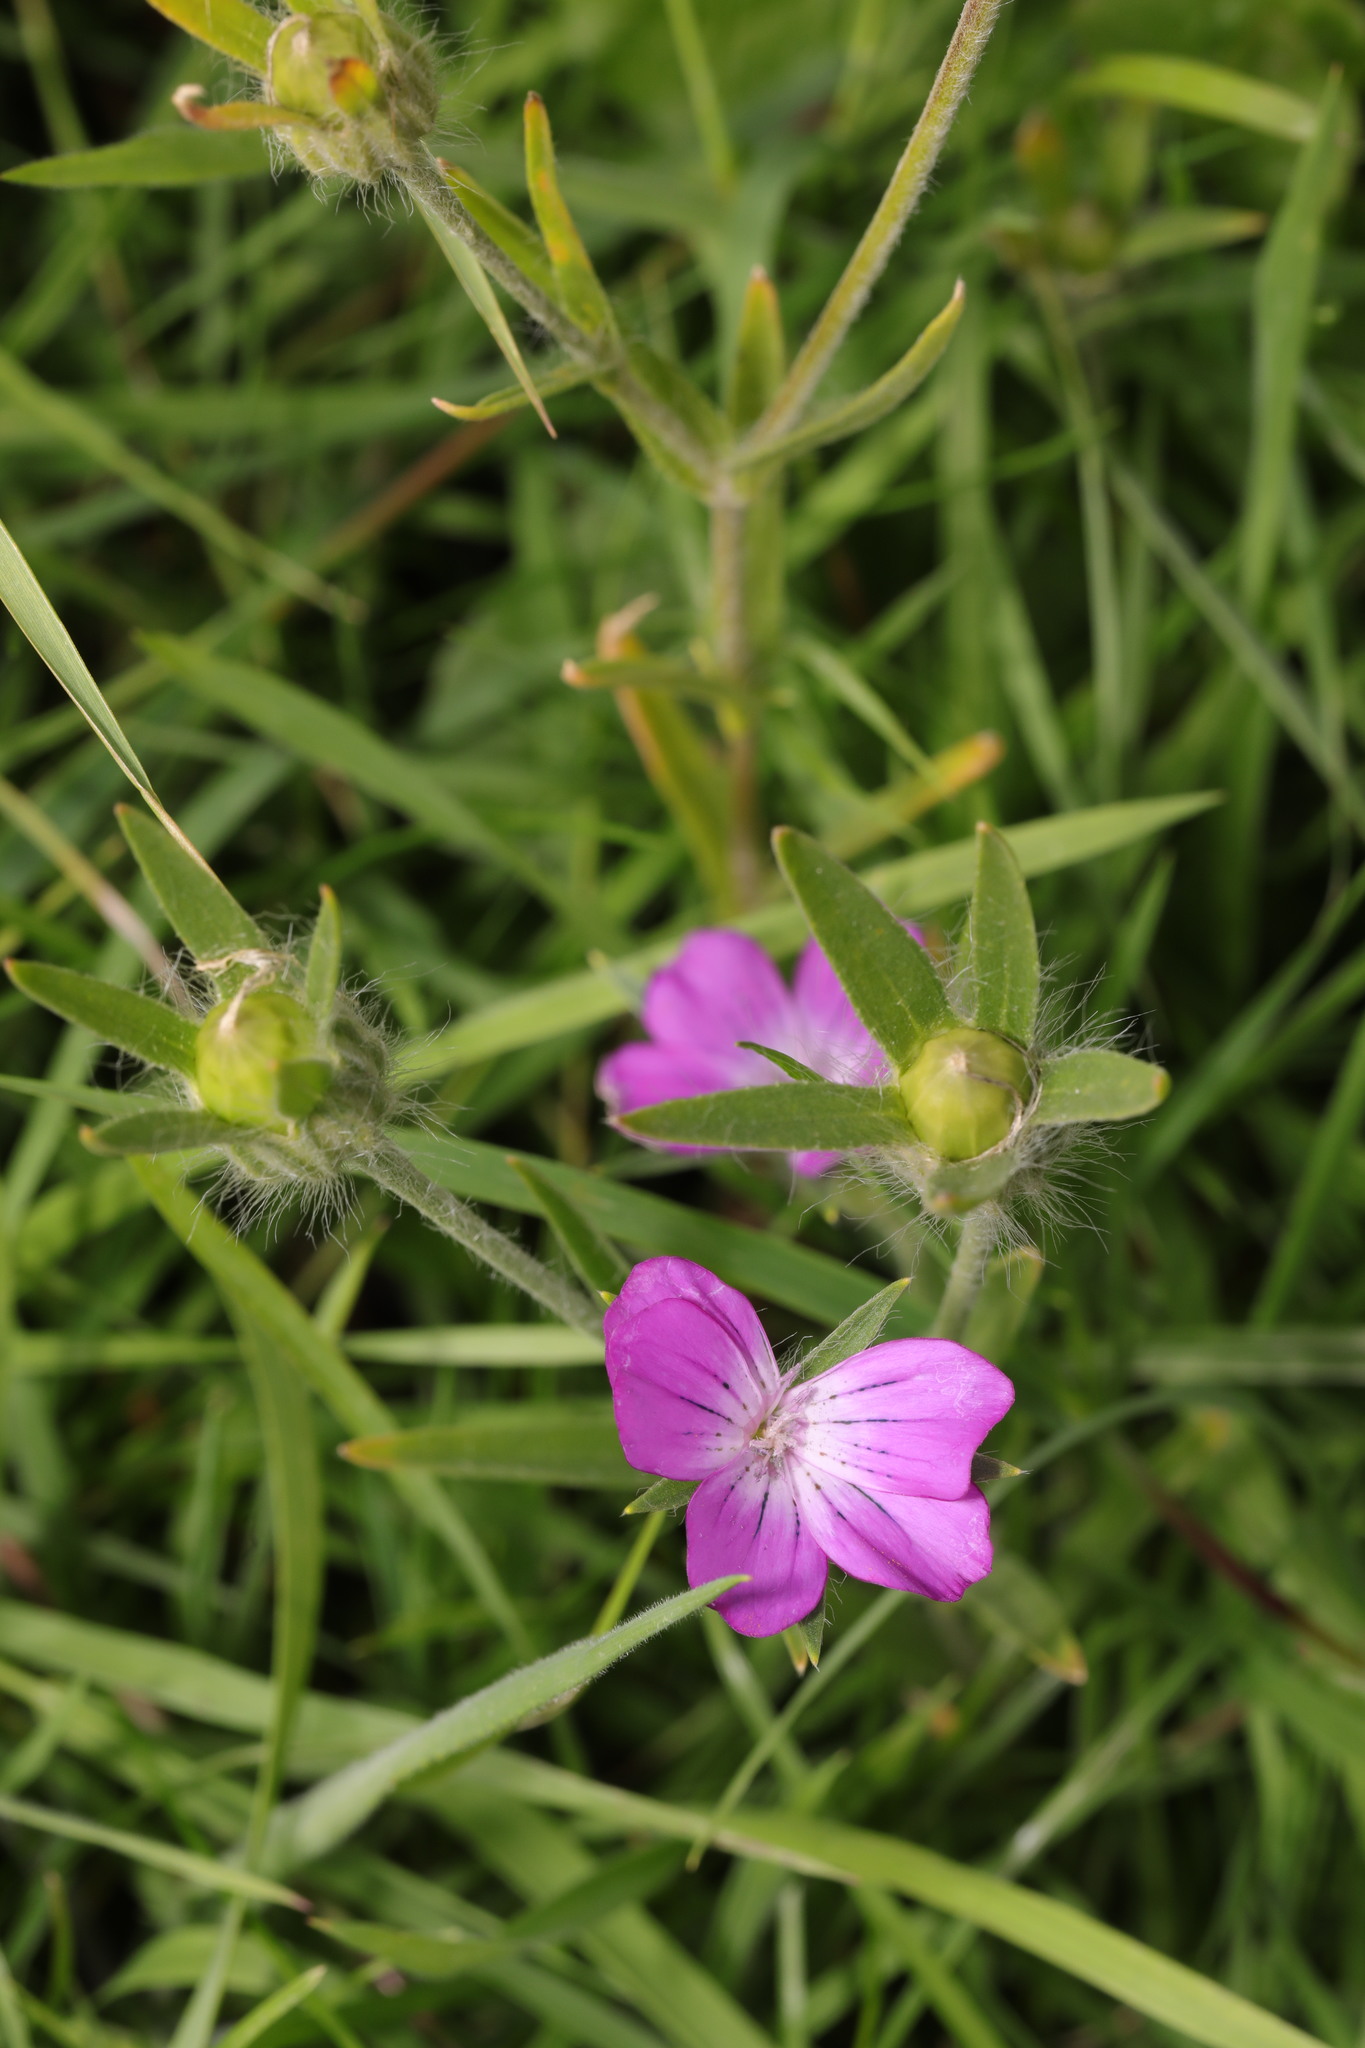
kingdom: Plantae
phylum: Tracheophyta
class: Magnoliopsida
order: Caryophyllales
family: Caryophyllaceae
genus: Agrostemma
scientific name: Agrostemma githago
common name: Common corncockle
